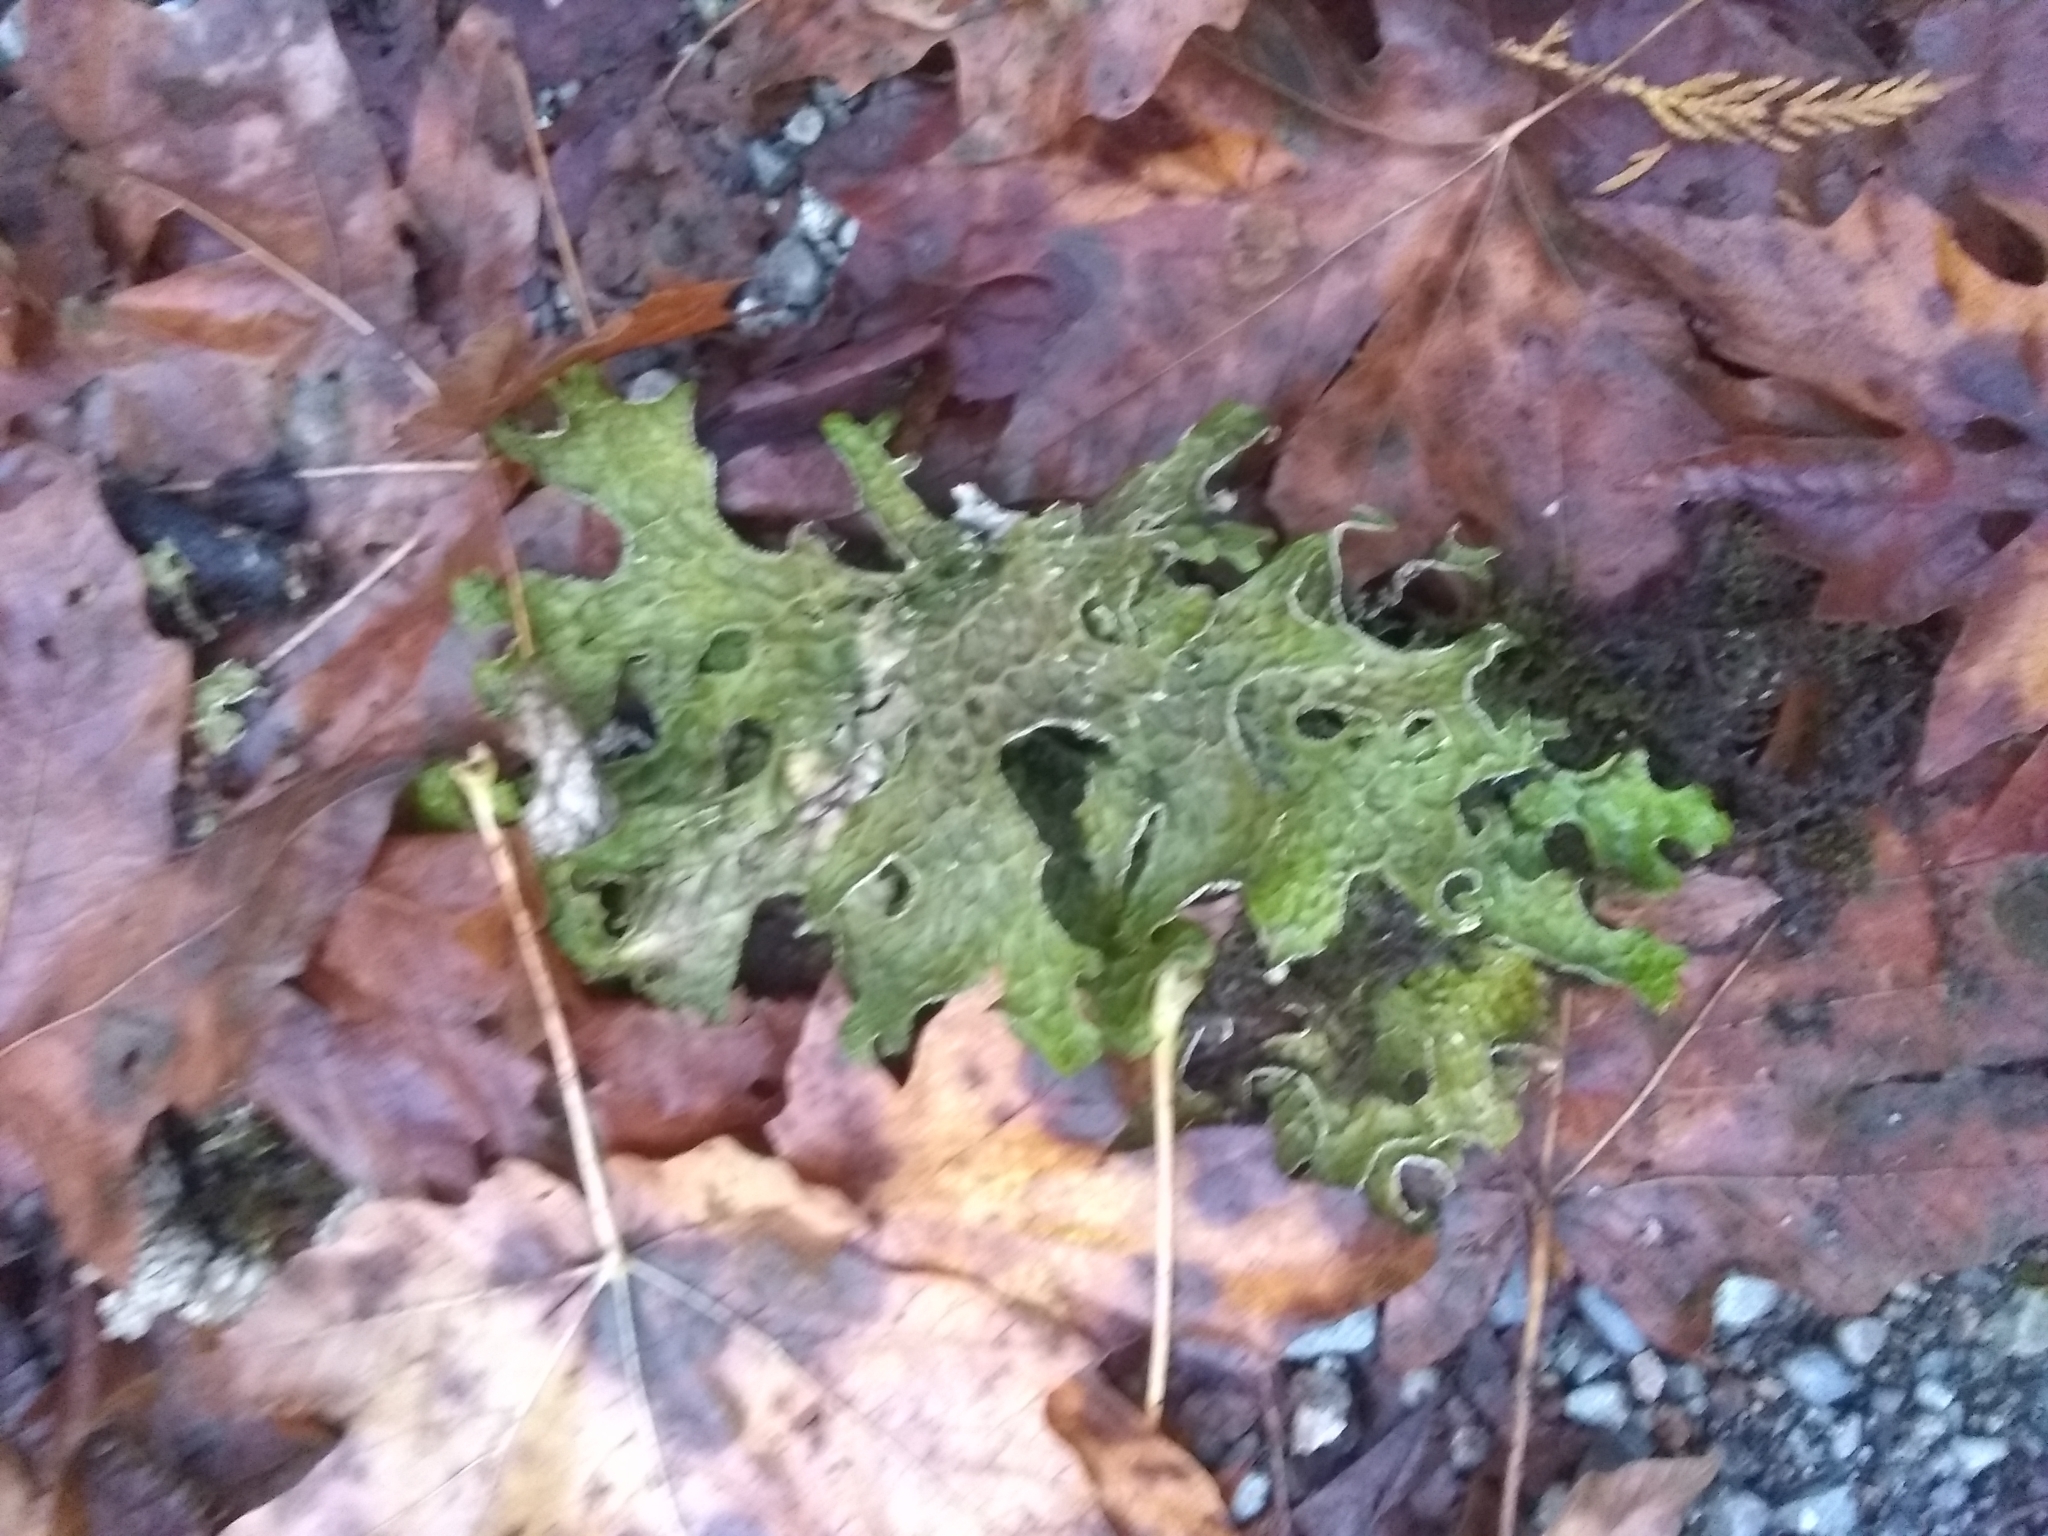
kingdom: Fungi
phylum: Ascomycota
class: Lecanoromycetes
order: Peltigerales
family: Lobariaceae
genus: Lobaria
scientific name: Lobaria pulmonaria
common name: Lungwort
